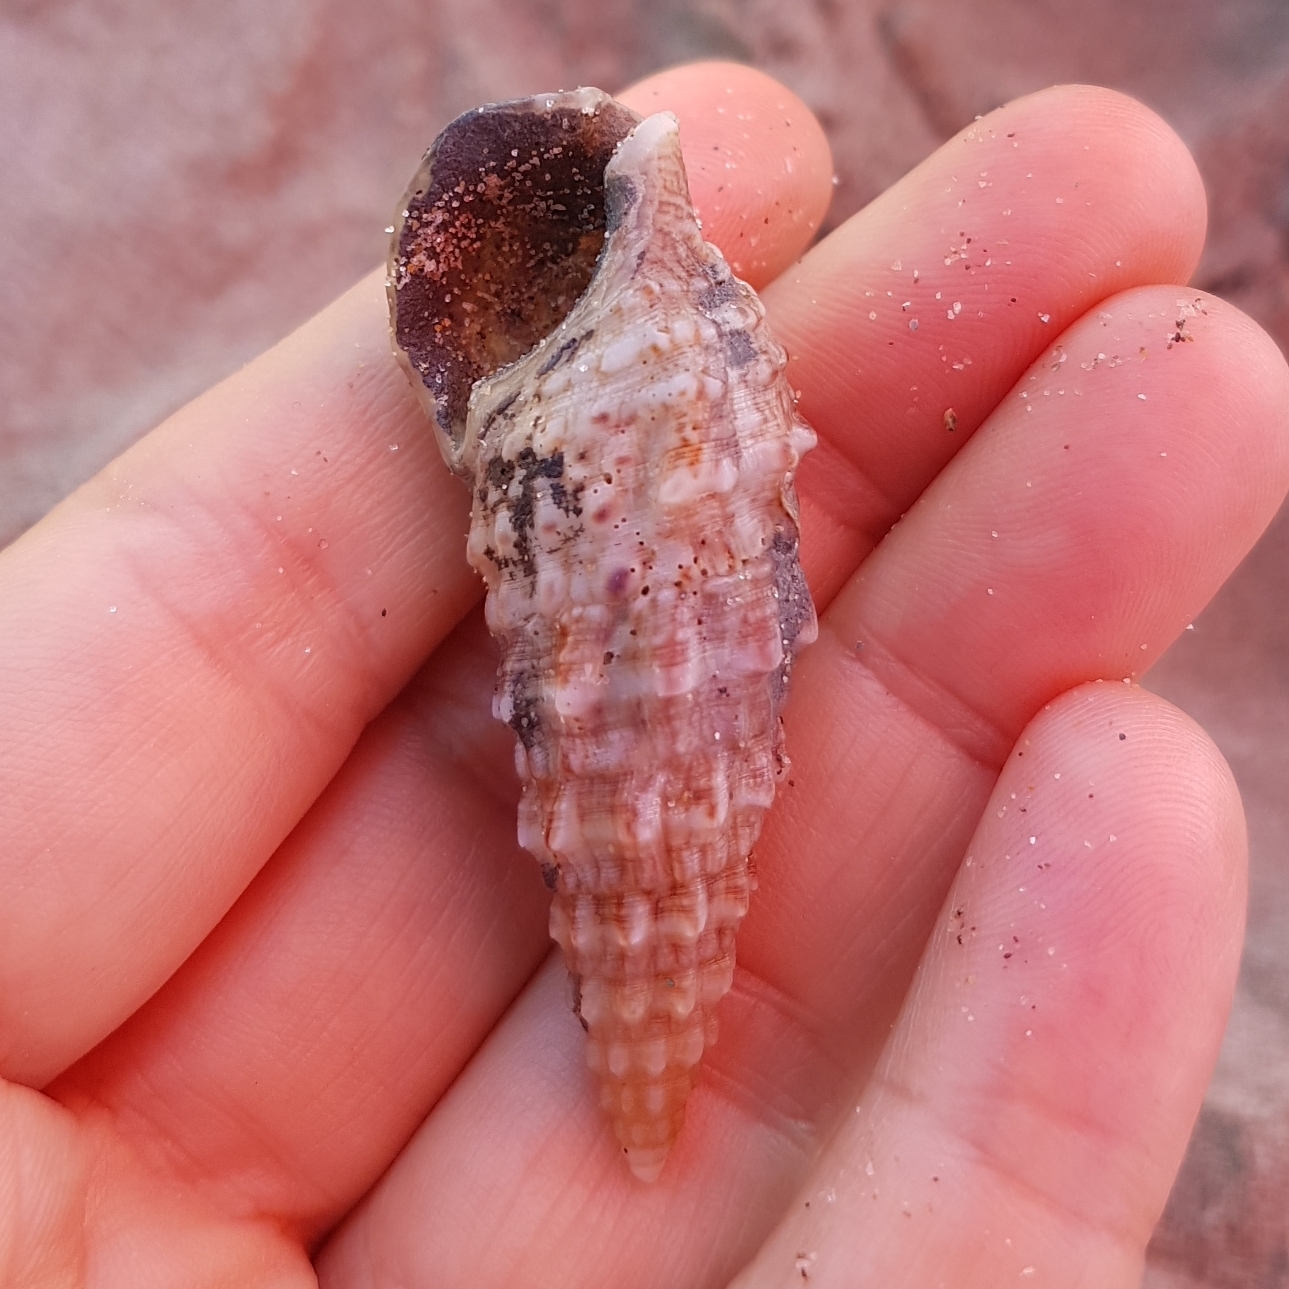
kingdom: Animalia
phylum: Mollusca
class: Gastropoda
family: Cerithiidae
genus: Cerithium
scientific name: Cerithium vulgatum
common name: European cerith
